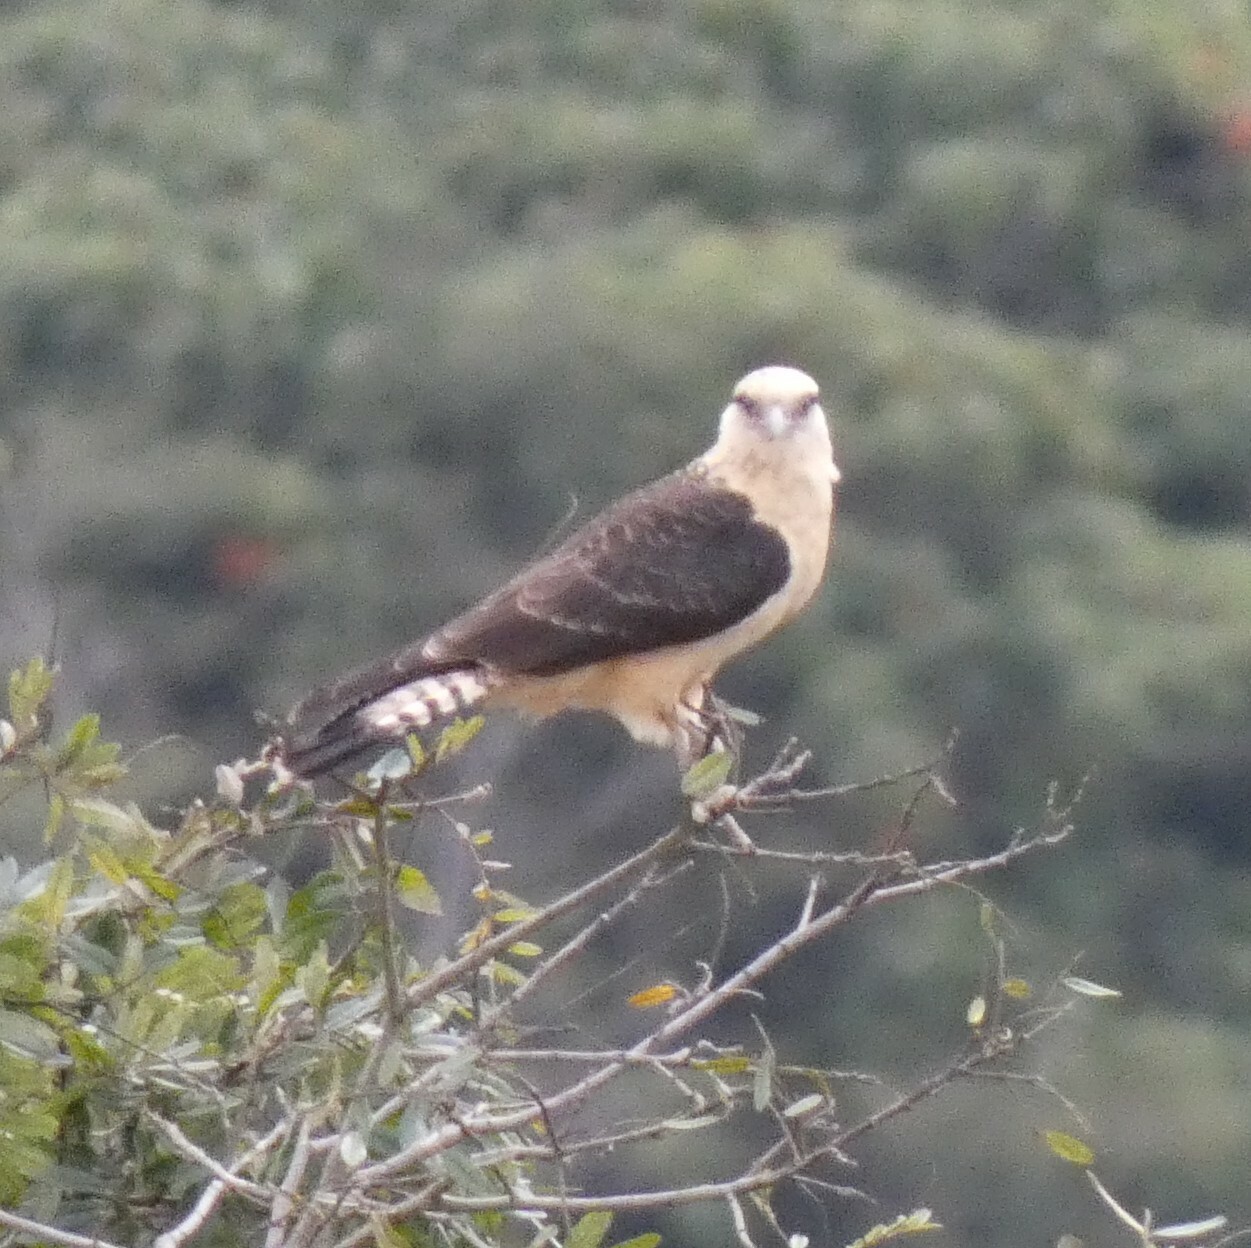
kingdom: Animalia
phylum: Chordata
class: Aves
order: Falconiformes
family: Falconidae
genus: Daptrius
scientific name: Daptrius
